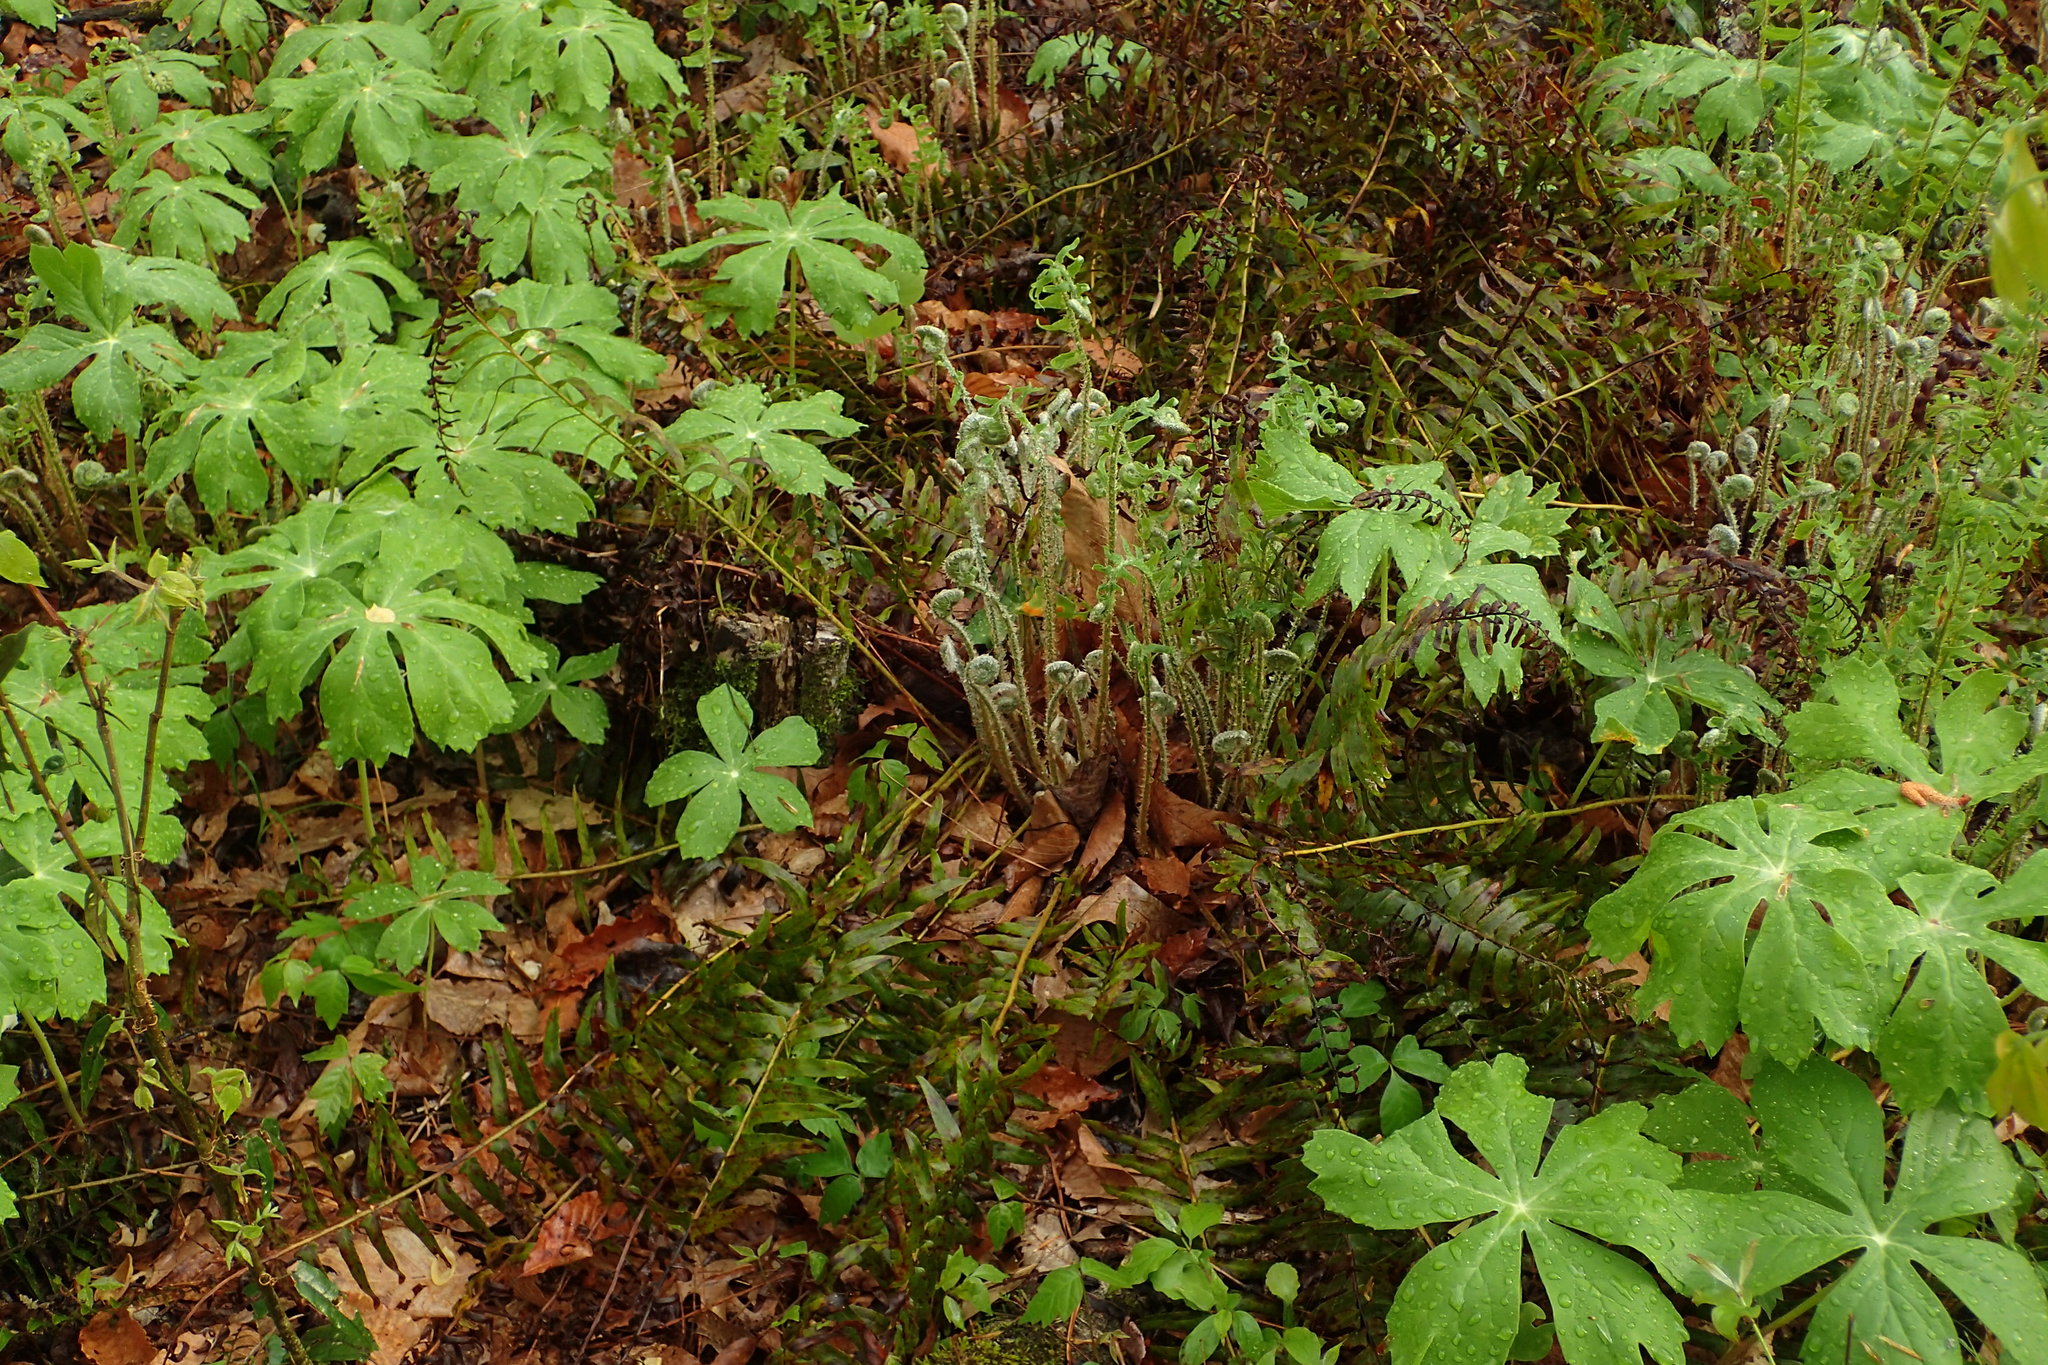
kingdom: Plantae
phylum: Tracheophyta
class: Polypodiopsida
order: Polypodiales
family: Dryopteridaceae
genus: Polystichum
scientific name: Polystichum acrostichoides
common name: Christmas fern
